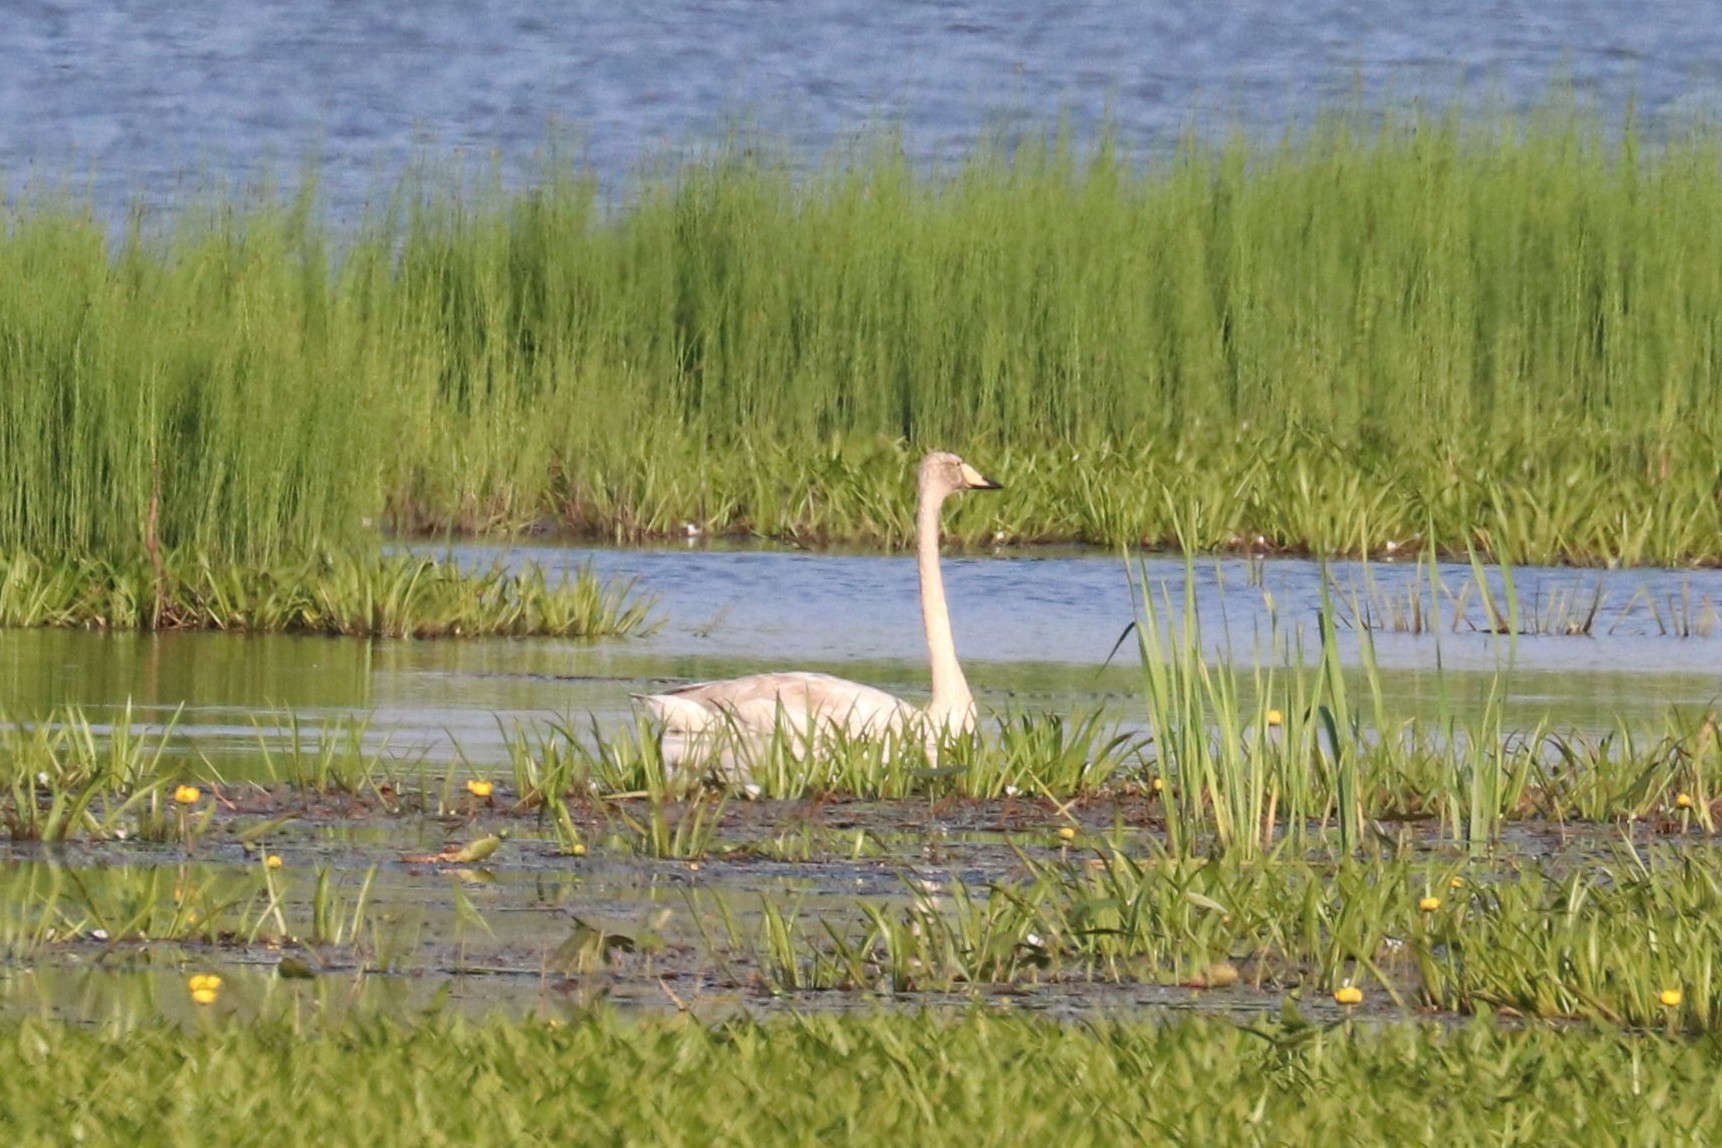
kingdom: Animalia
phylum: Chordata
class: Aves
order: Anseriformes
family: Anatidae
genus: Cygnus
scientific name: Cygnus cygnus
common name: Whooper swan
